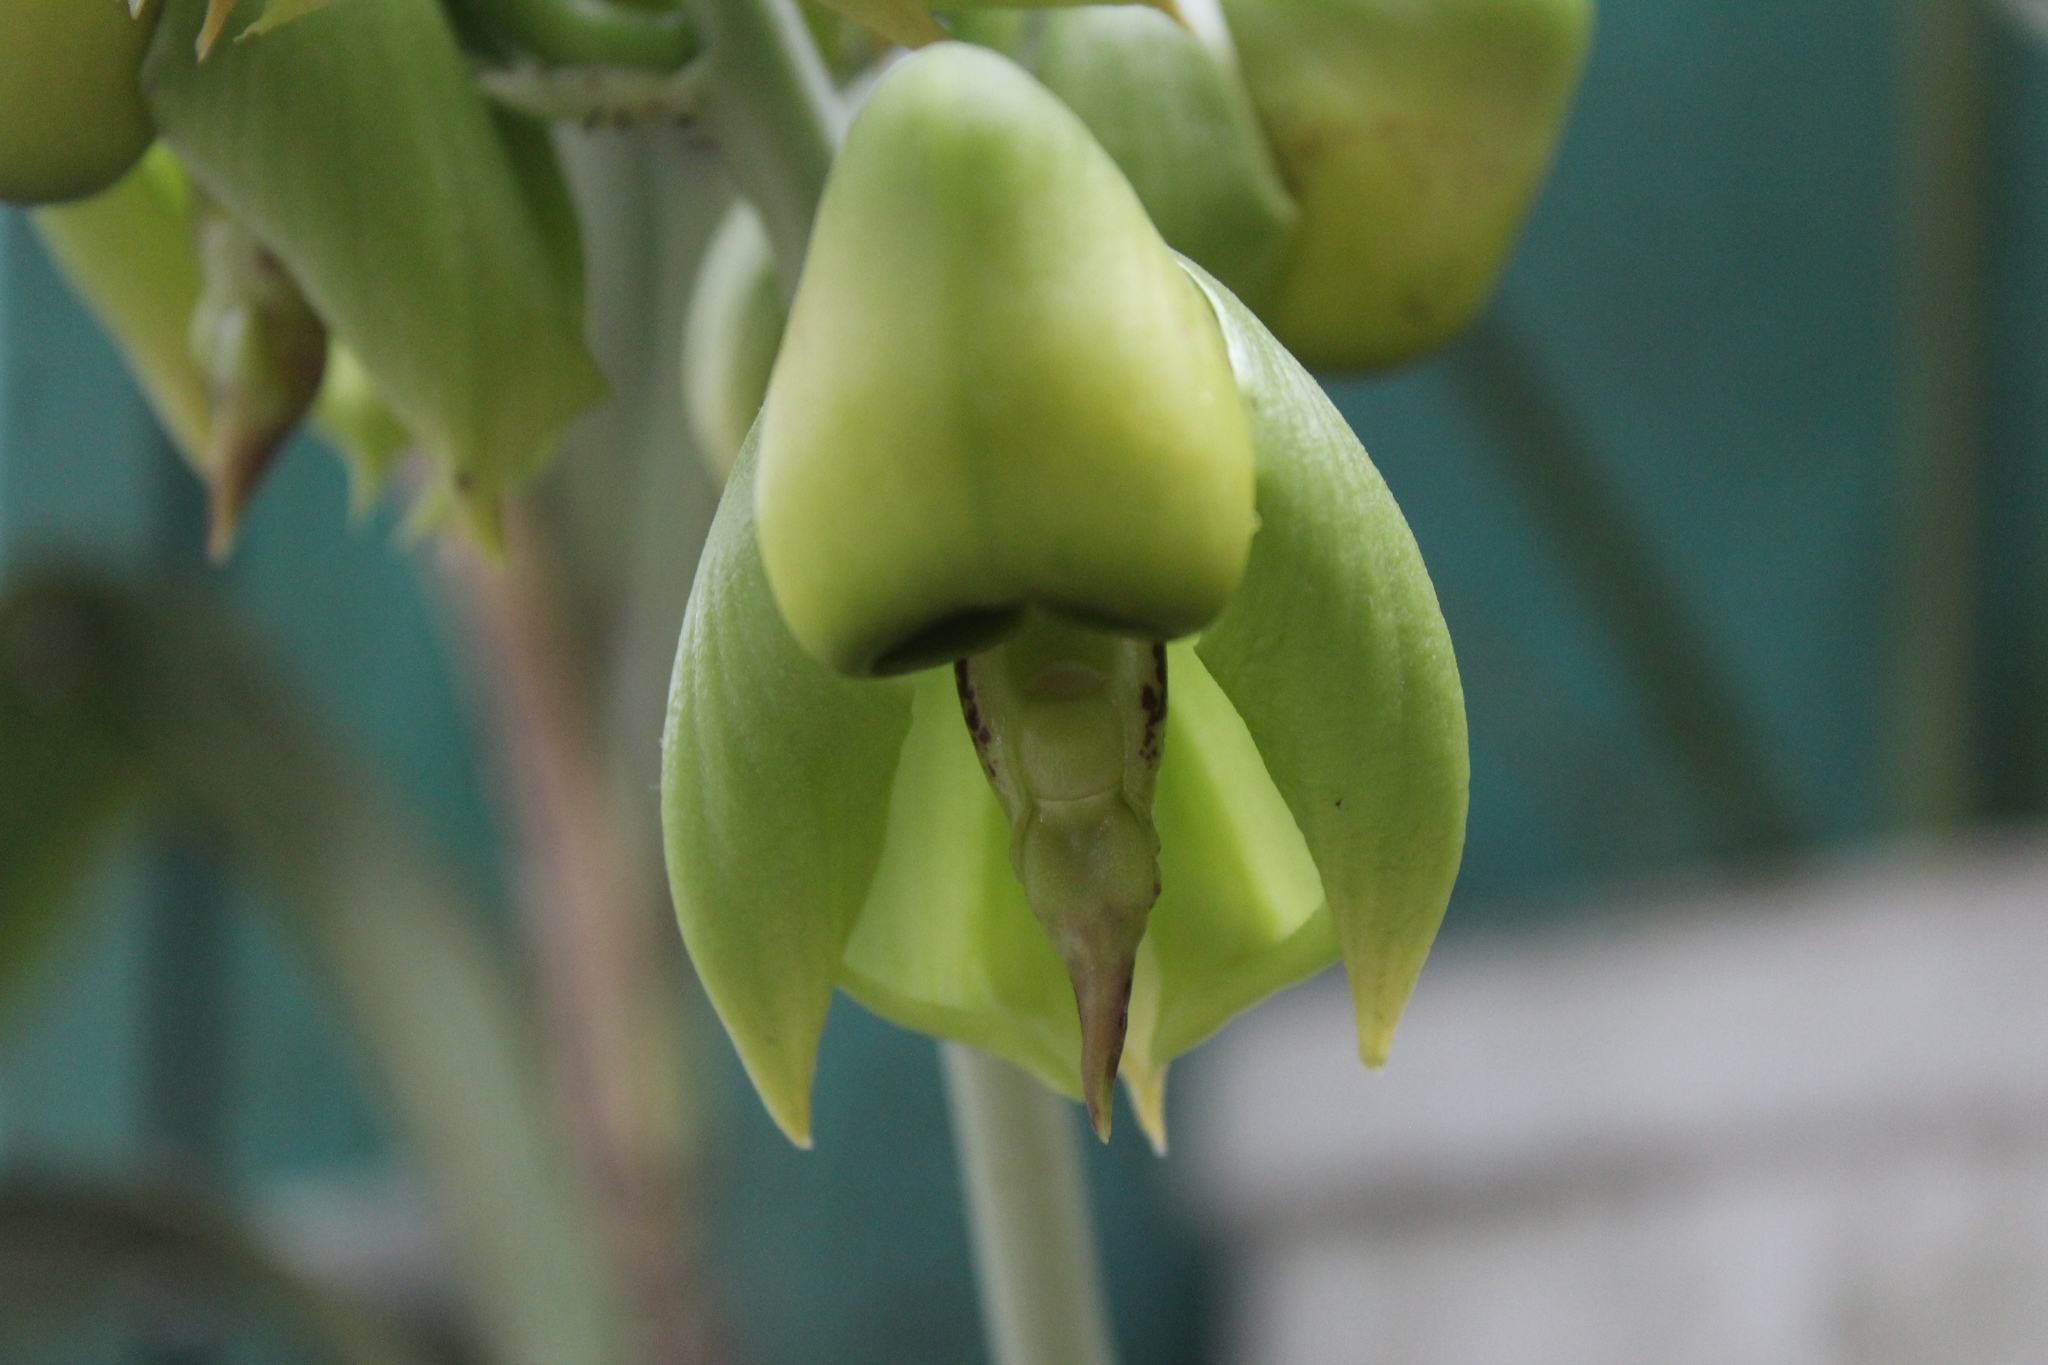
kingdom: Plantae
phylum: Tracheophyta
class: Liliopsida
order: Asparagales
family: Orchidaceae
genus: Catasetum
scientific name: Catasetum integerrimum
